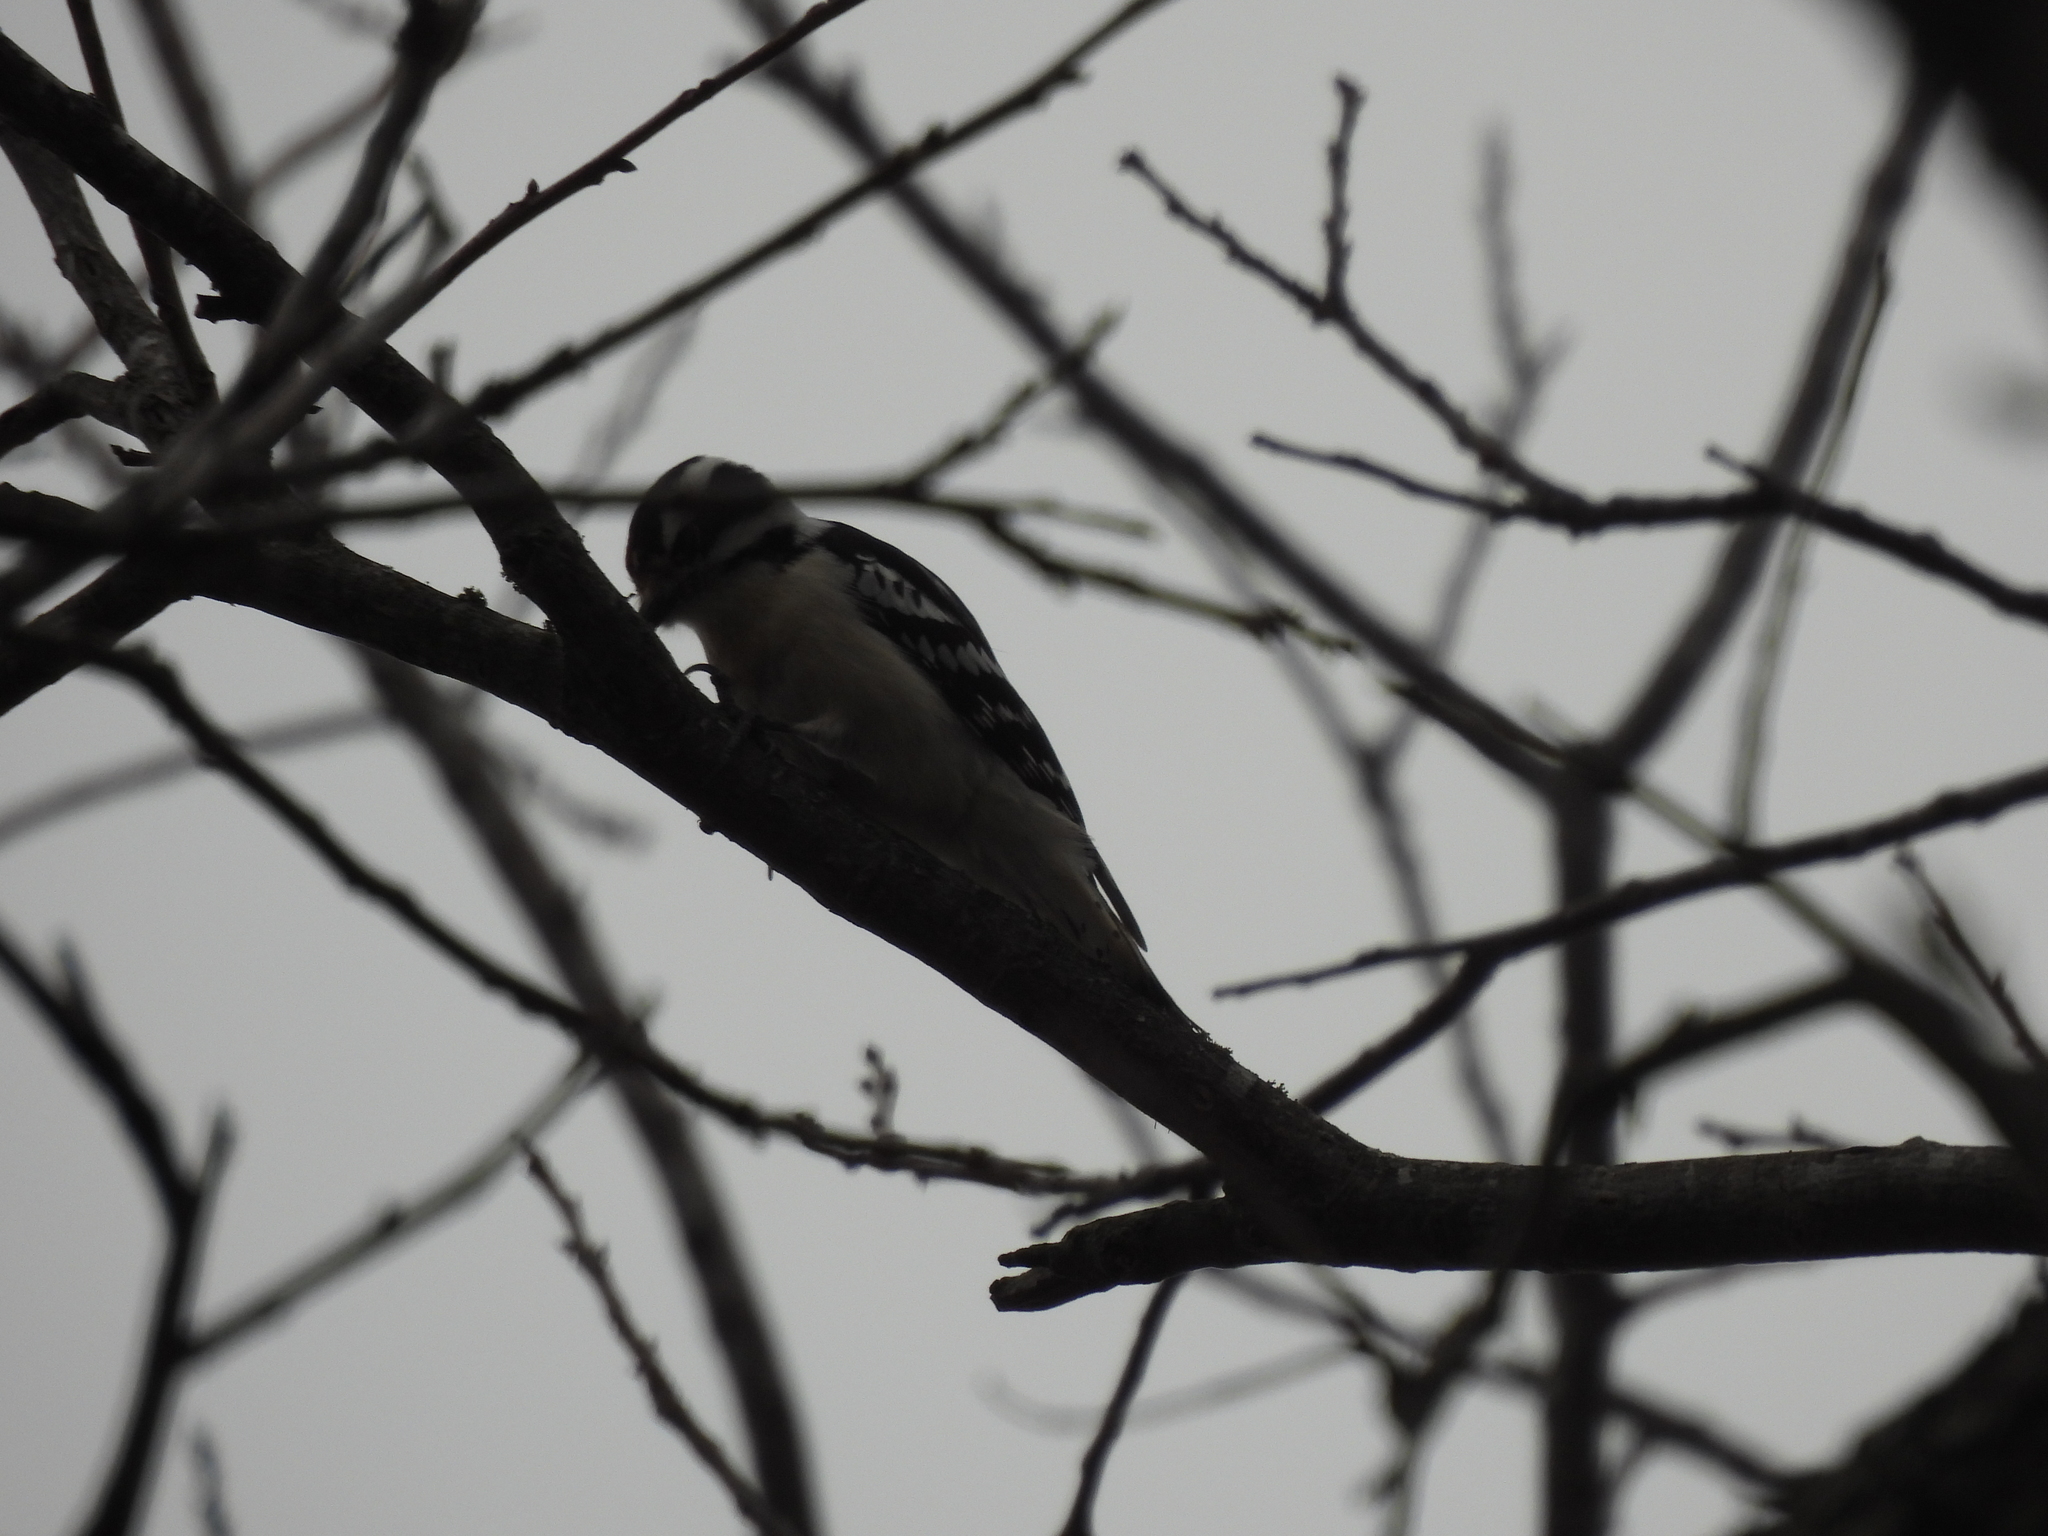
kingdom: Animalia
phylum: Chordata
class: Aves
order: Piciformes
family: Picidae
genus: Dryobates
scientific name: Dryobates pubescens
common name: Downy woodpecker
